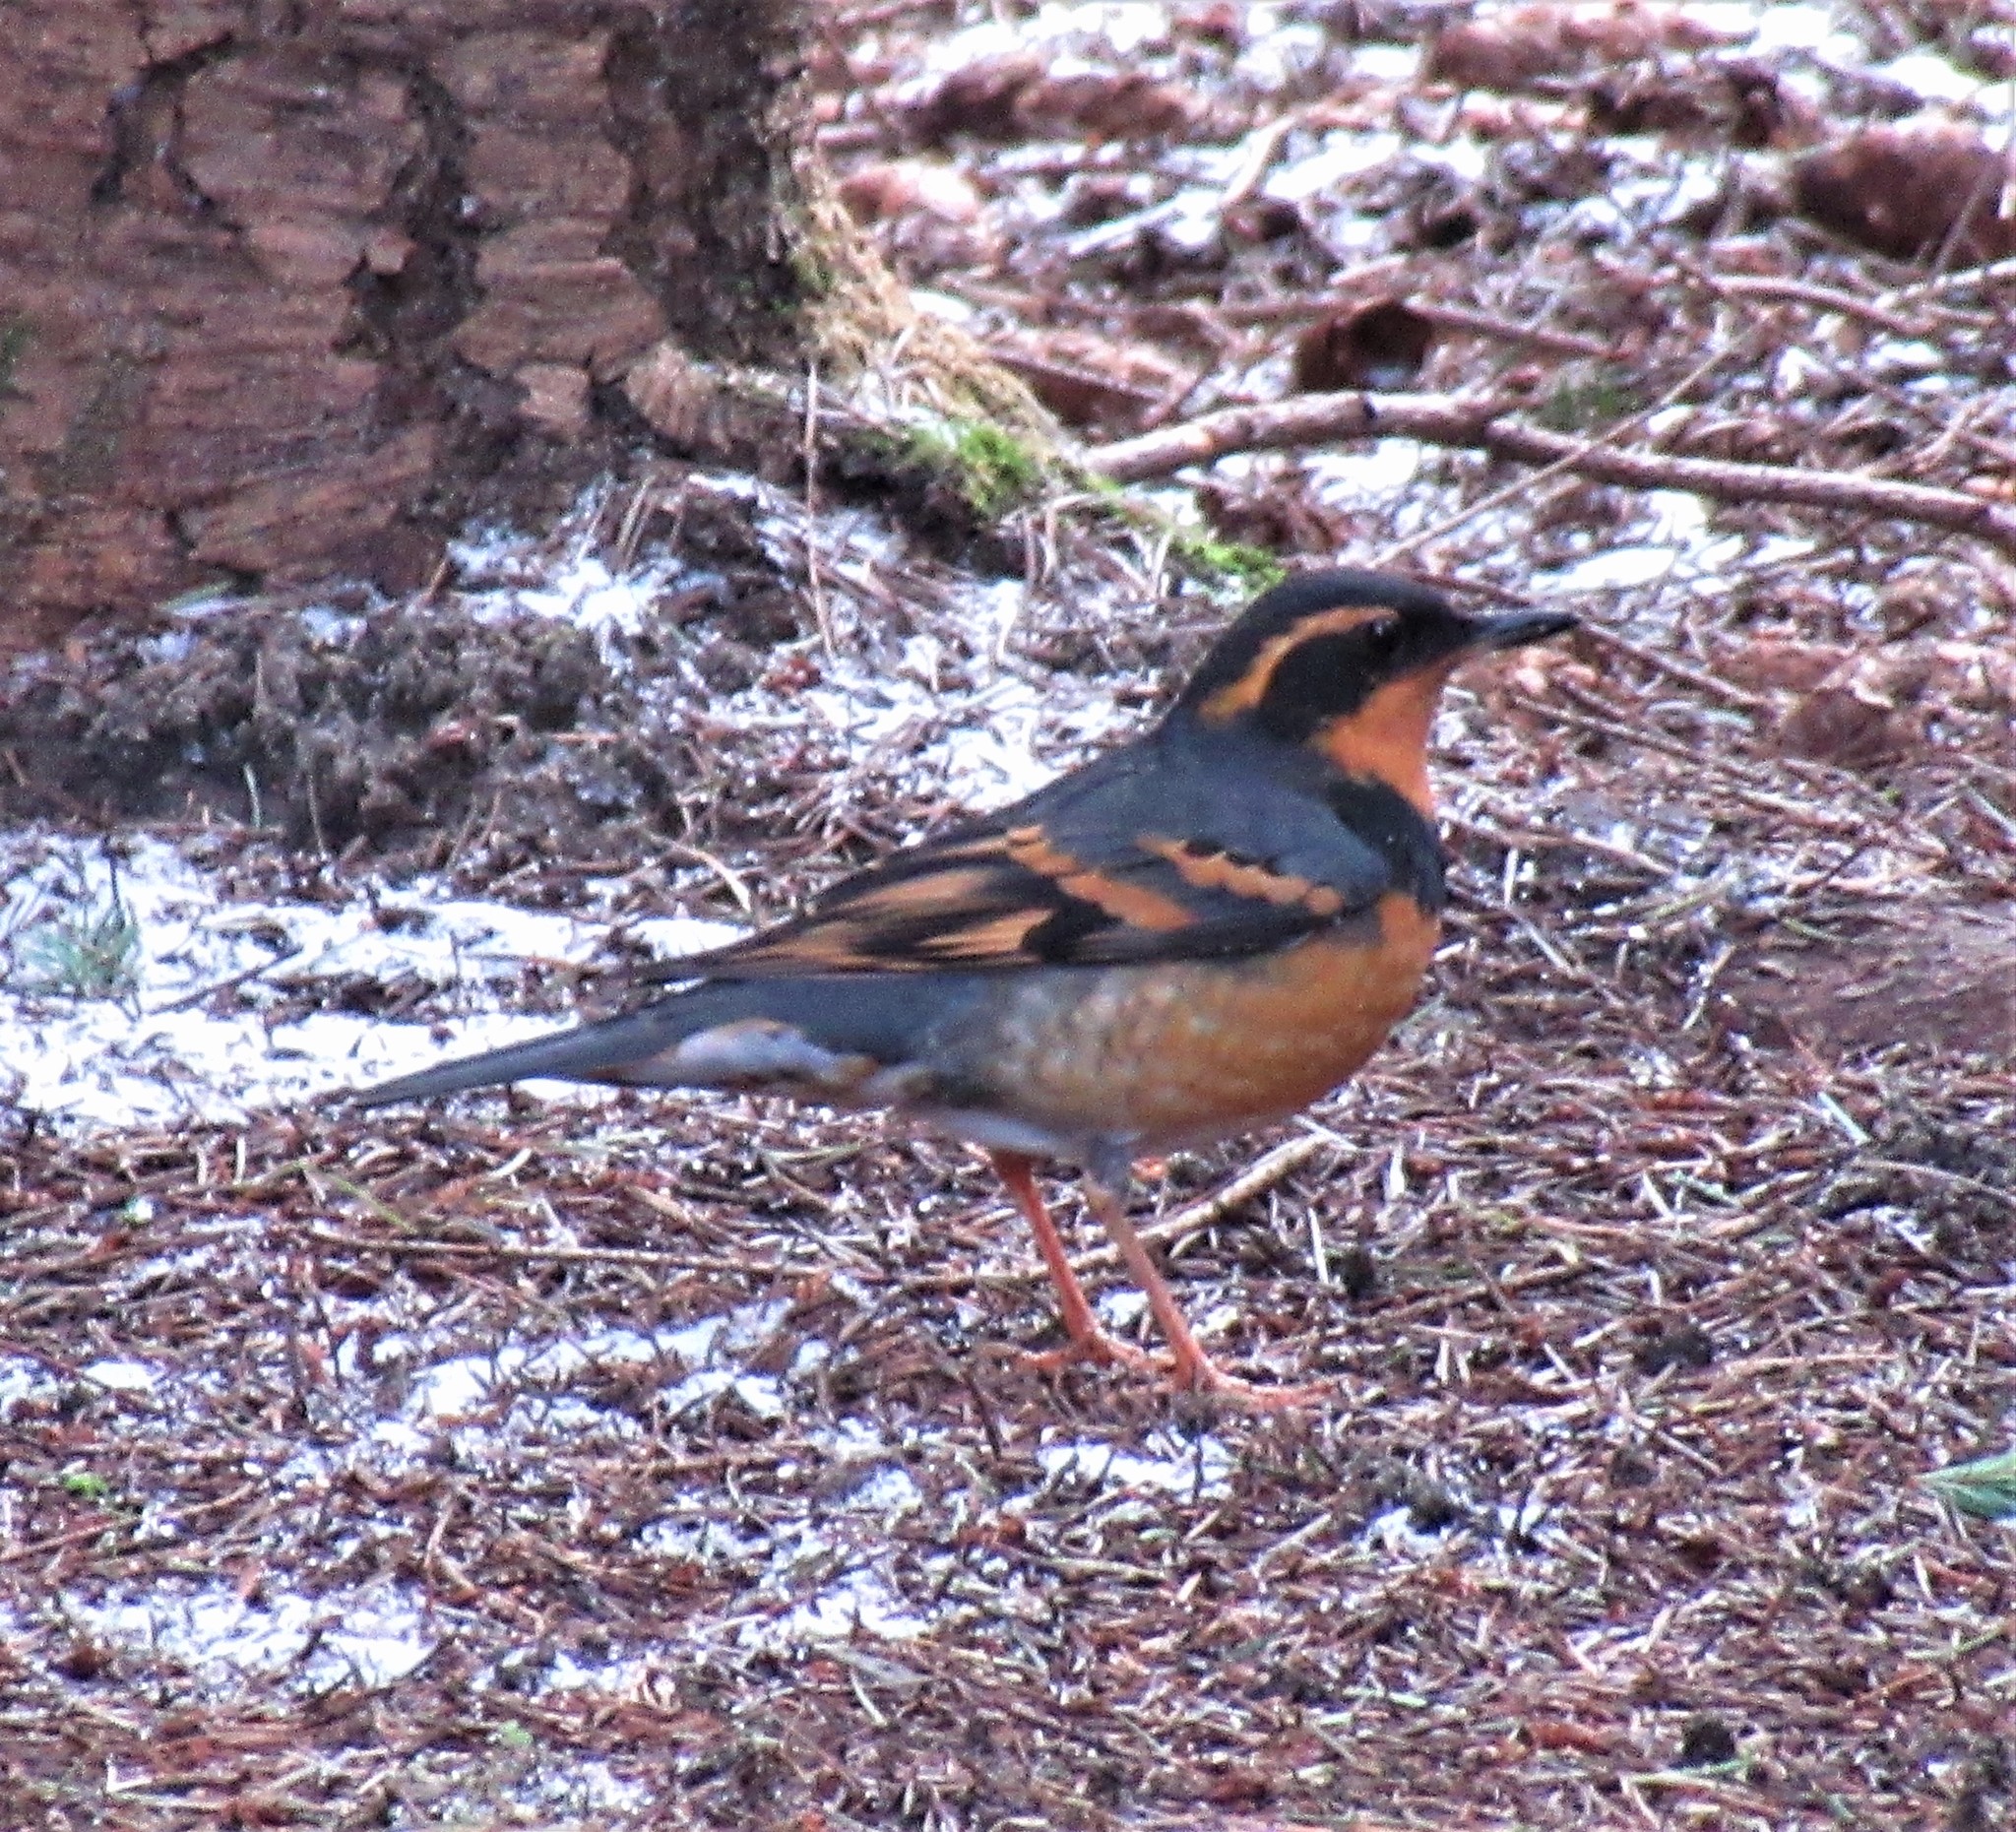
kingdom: Animalia
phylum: Chordata
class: Aves
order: Passeriformes
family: Turdidae
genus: Ixoreus
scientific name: Ixoreus naevius
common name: Varied thrush
